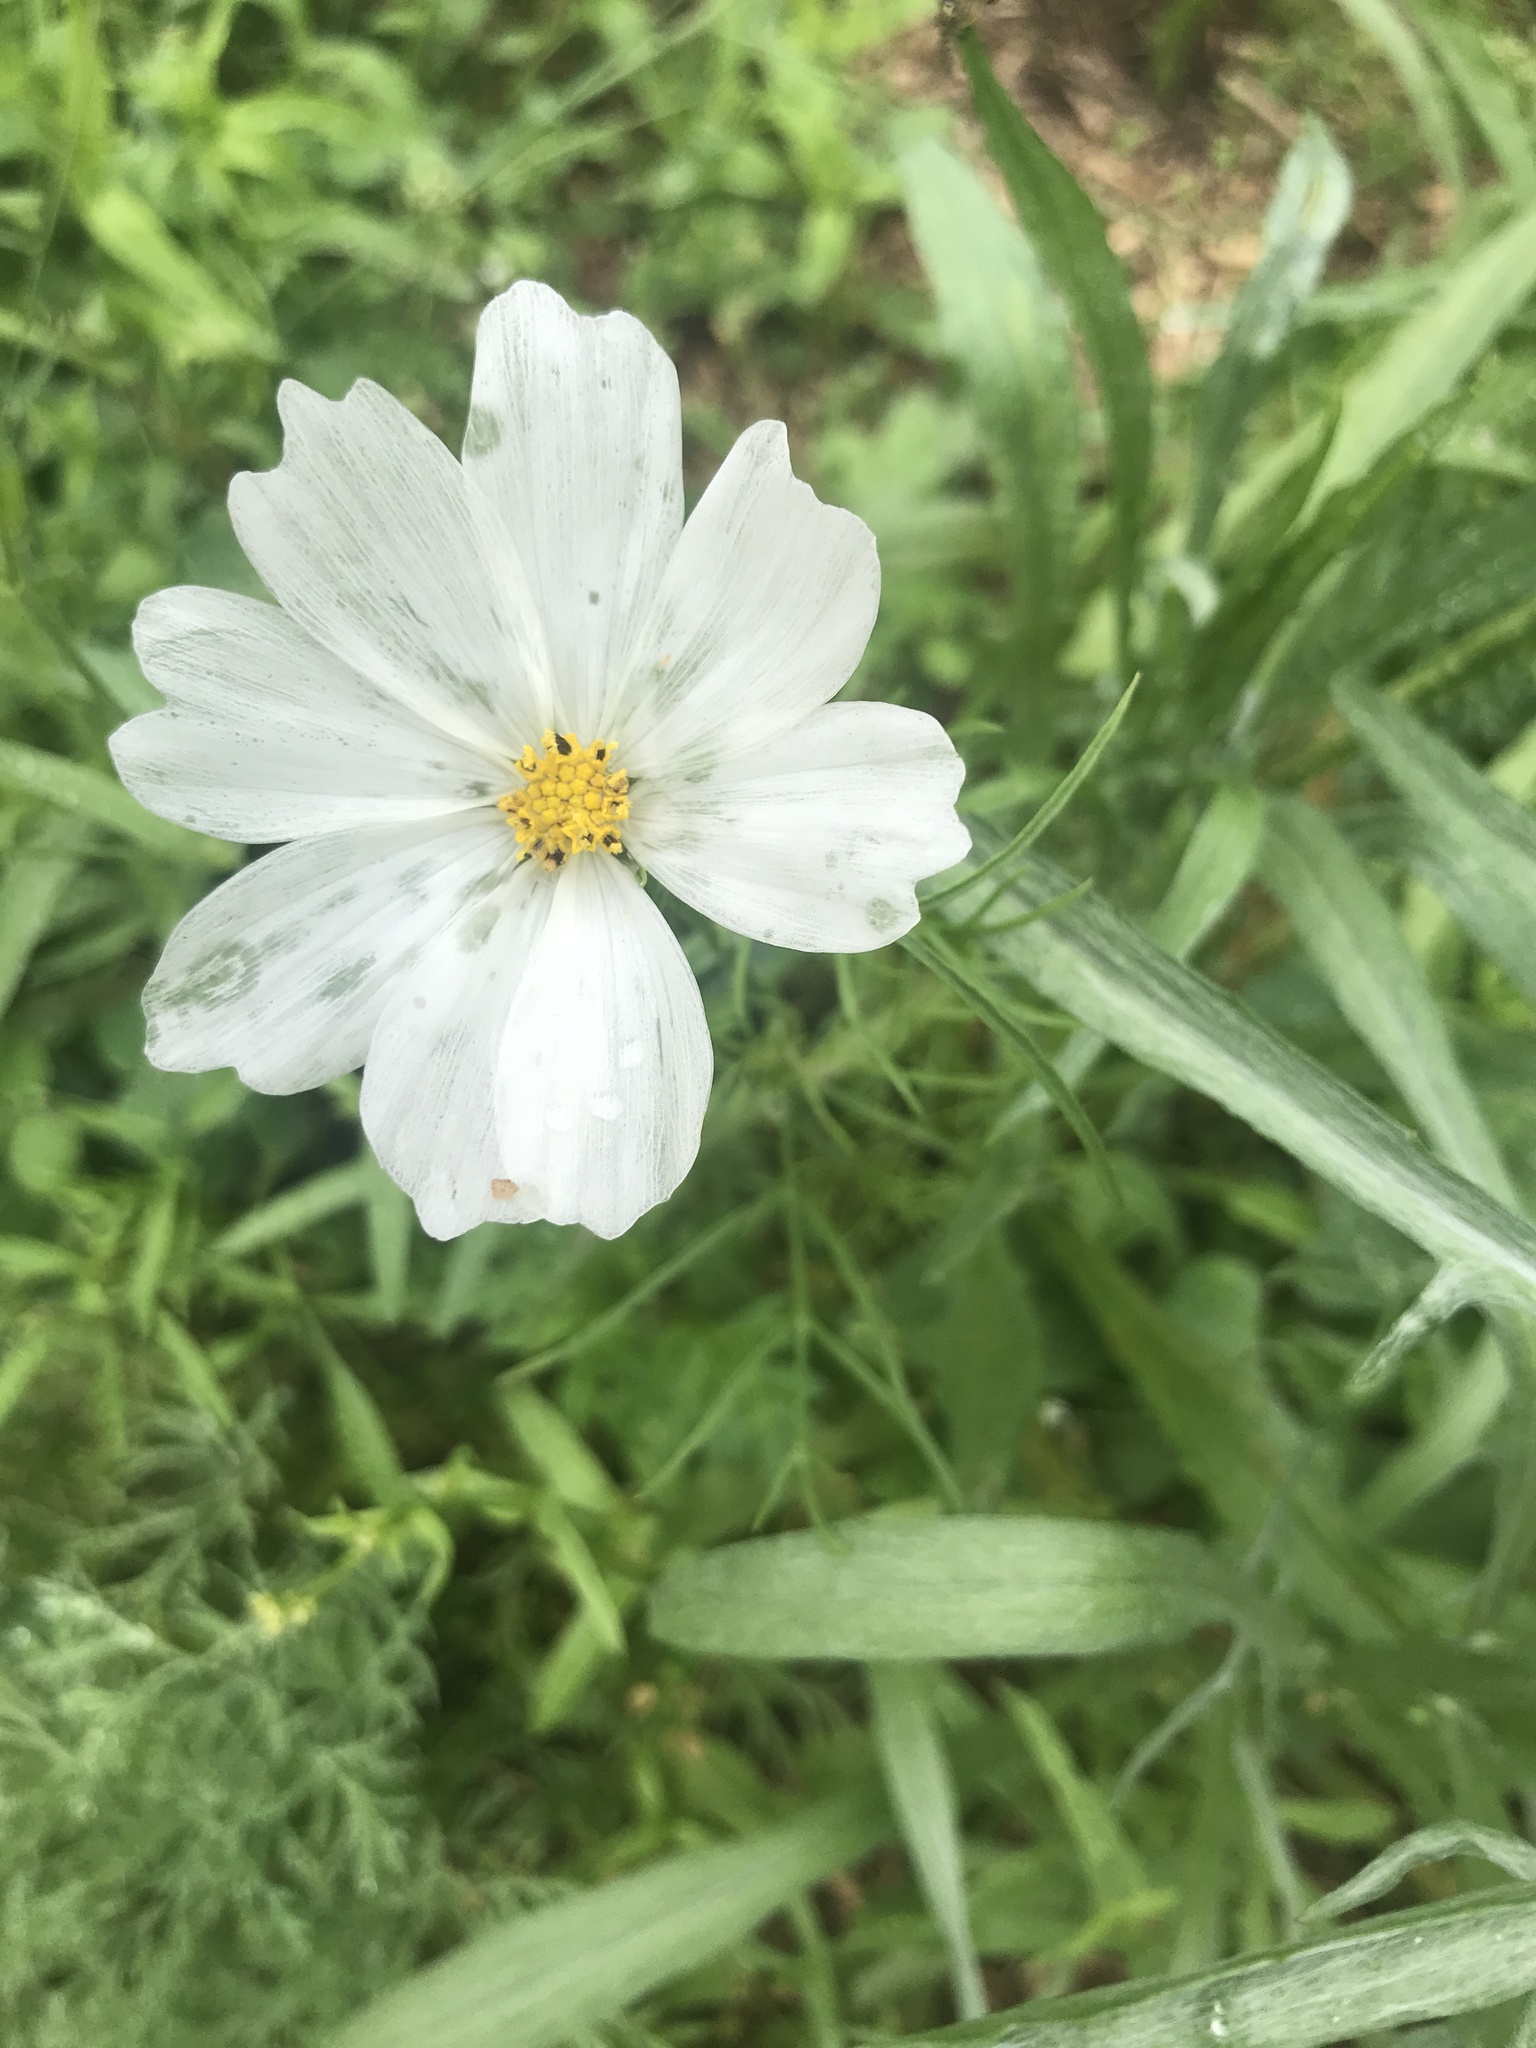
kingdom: Plantae
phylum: Tracheophyta
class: Magnoliopsida
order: Asterales
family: Asteraceae
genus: Cosmos
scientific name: Cosmos bipinnatus
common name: Garden cosmos
